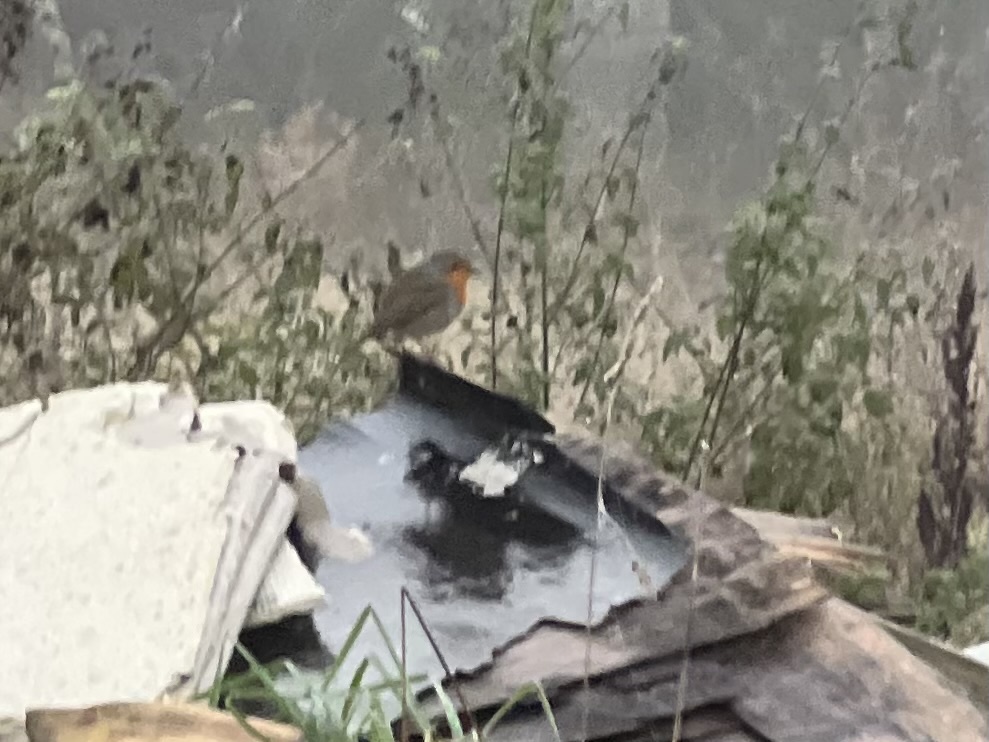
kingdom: Animalia
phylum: Chordata
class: Aves
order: Passeriformes
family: Muscicapidae
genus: Erithacus
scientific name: Erithacus rubecula
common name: European robin
